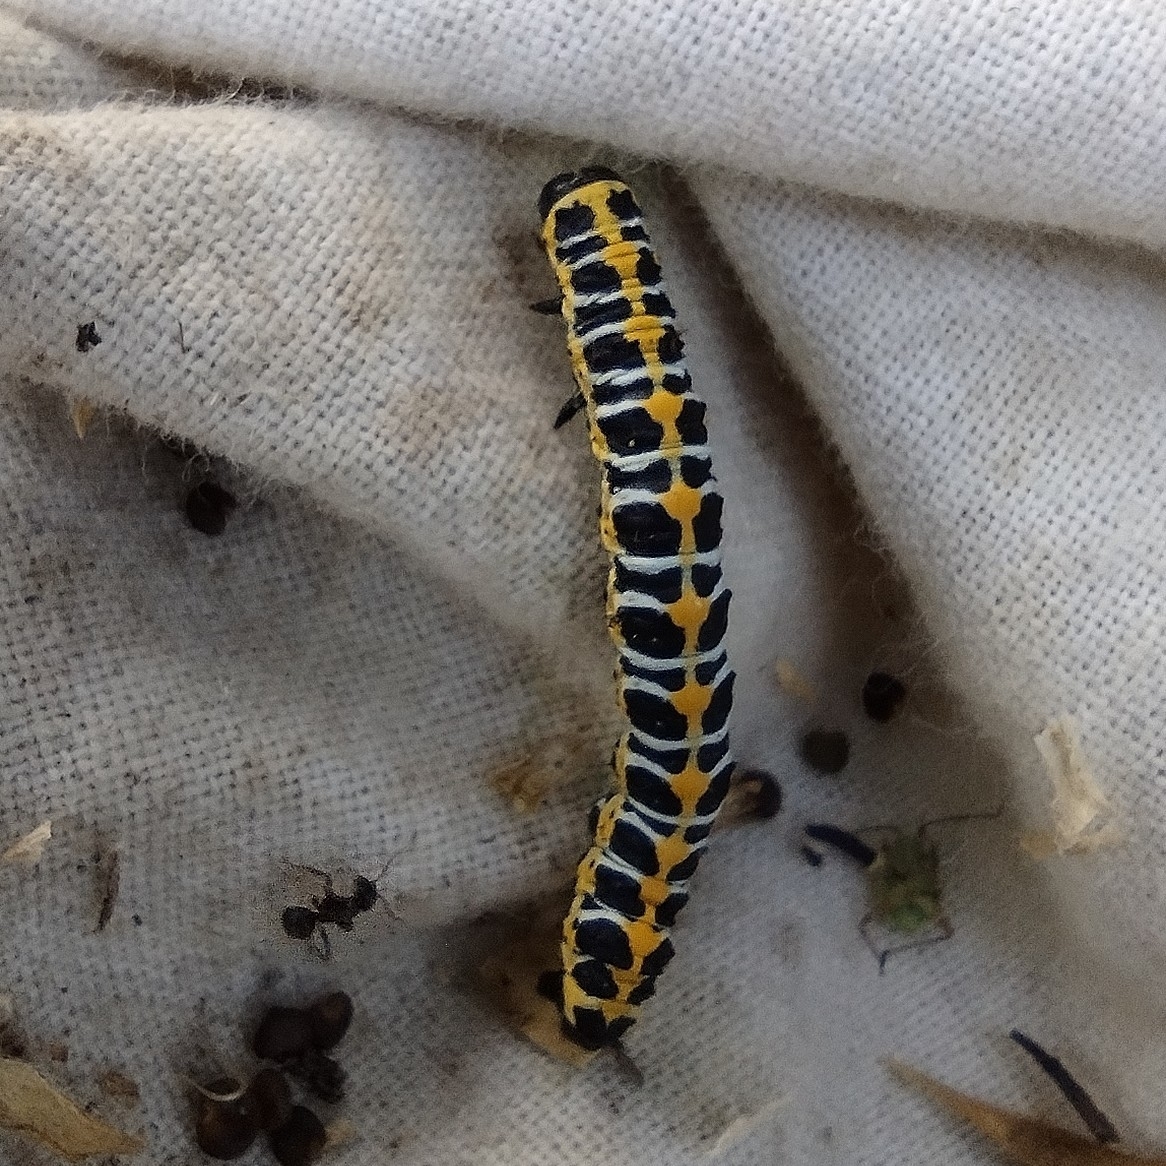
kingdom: Animalia
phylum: Arthropoda
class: Insecta
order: Lepidoptera
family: Noctuidae
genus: Cucullia
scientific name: Cucullia lactucae
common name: Lettuce shark
